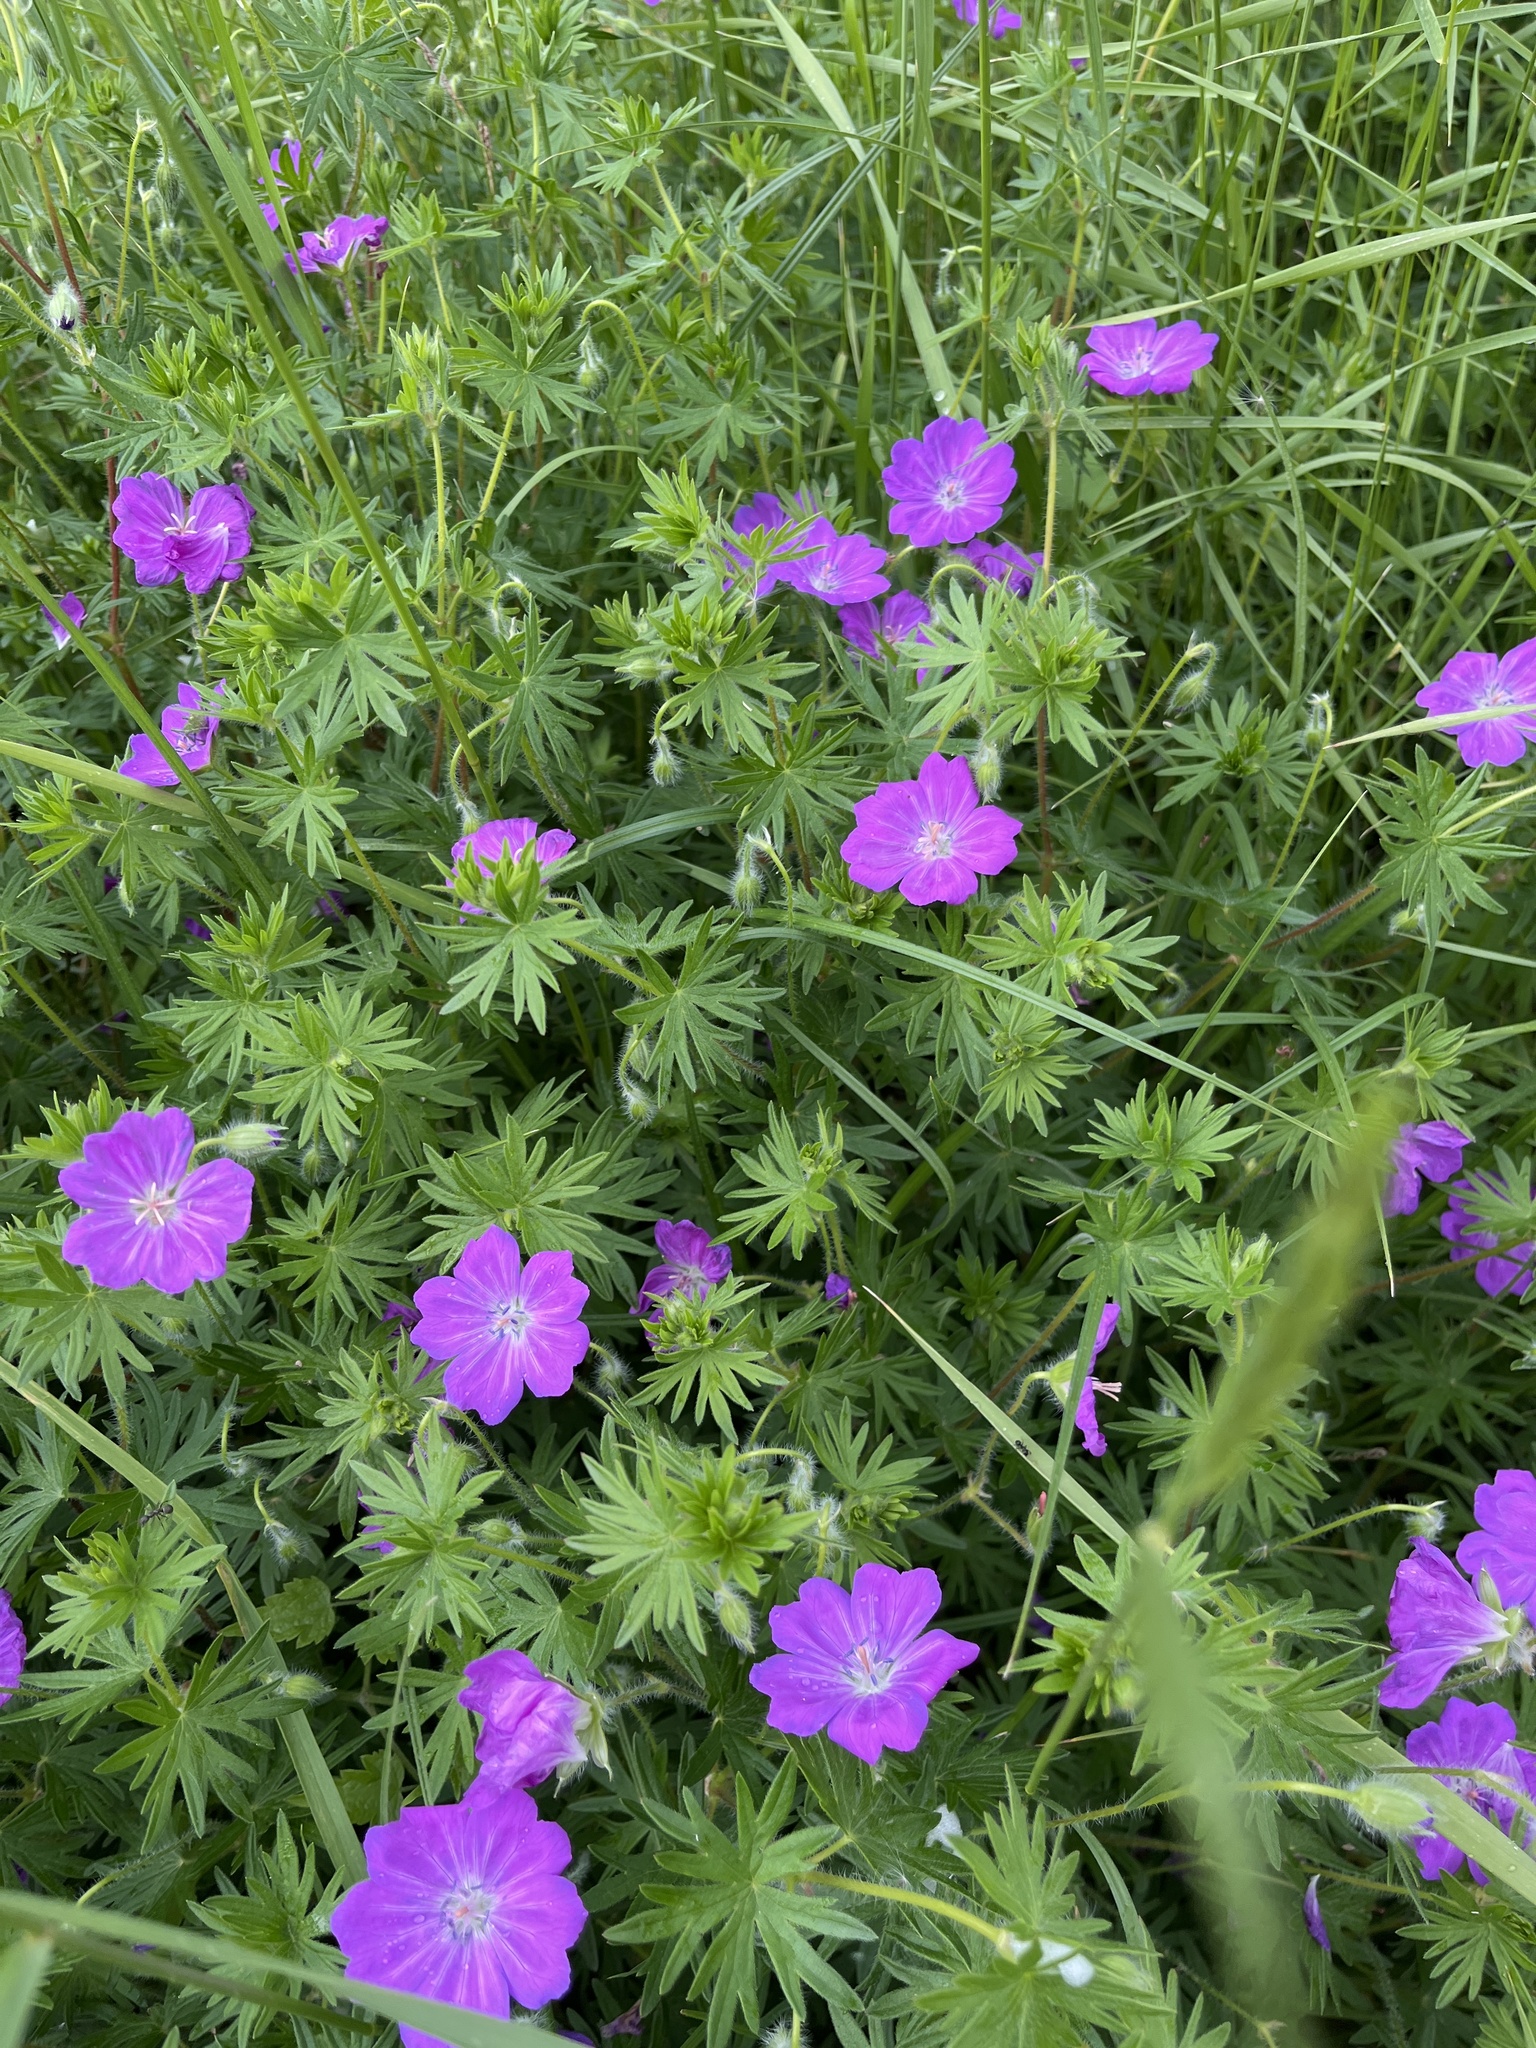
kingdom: Plantae
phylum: Tracheophyta
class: Magnoliopsida
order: Geraniales
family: Geraniaceae
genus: Geranium
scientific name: Geranium sanguineum
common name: Bloody crane's-bill
